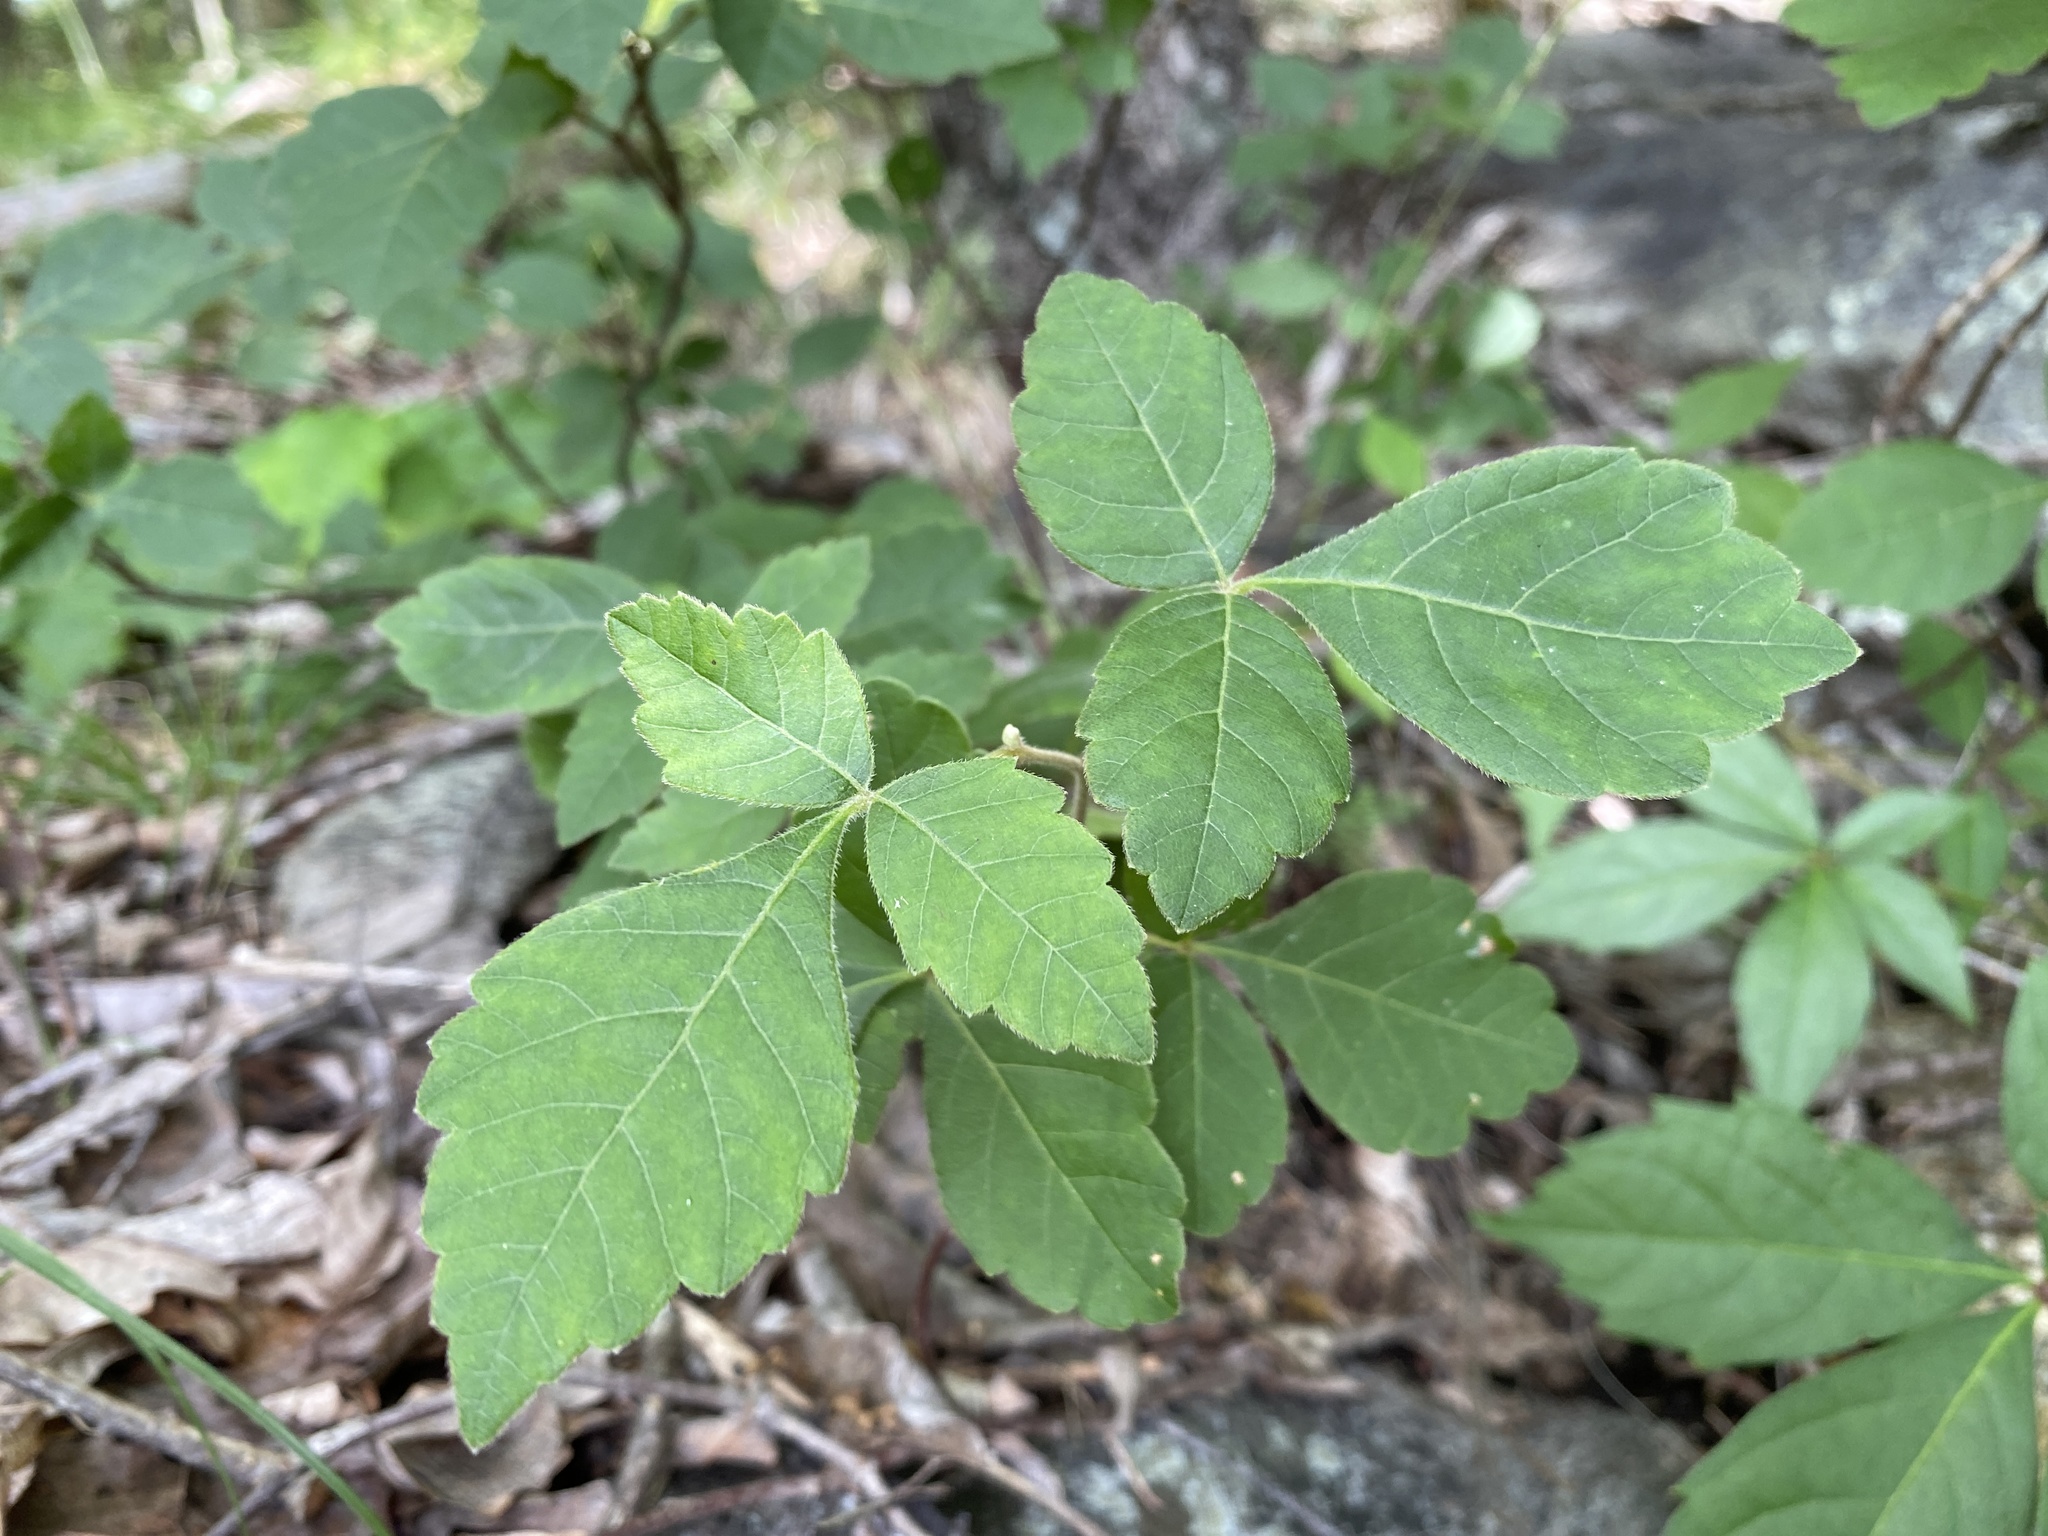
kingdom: Plantae
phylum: Tracheophyta
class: Magnoliopsida
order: Sapindales
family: Anacardiaceae
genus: Rhus
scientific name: Rhus aromatica
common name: Aromatic sumac
